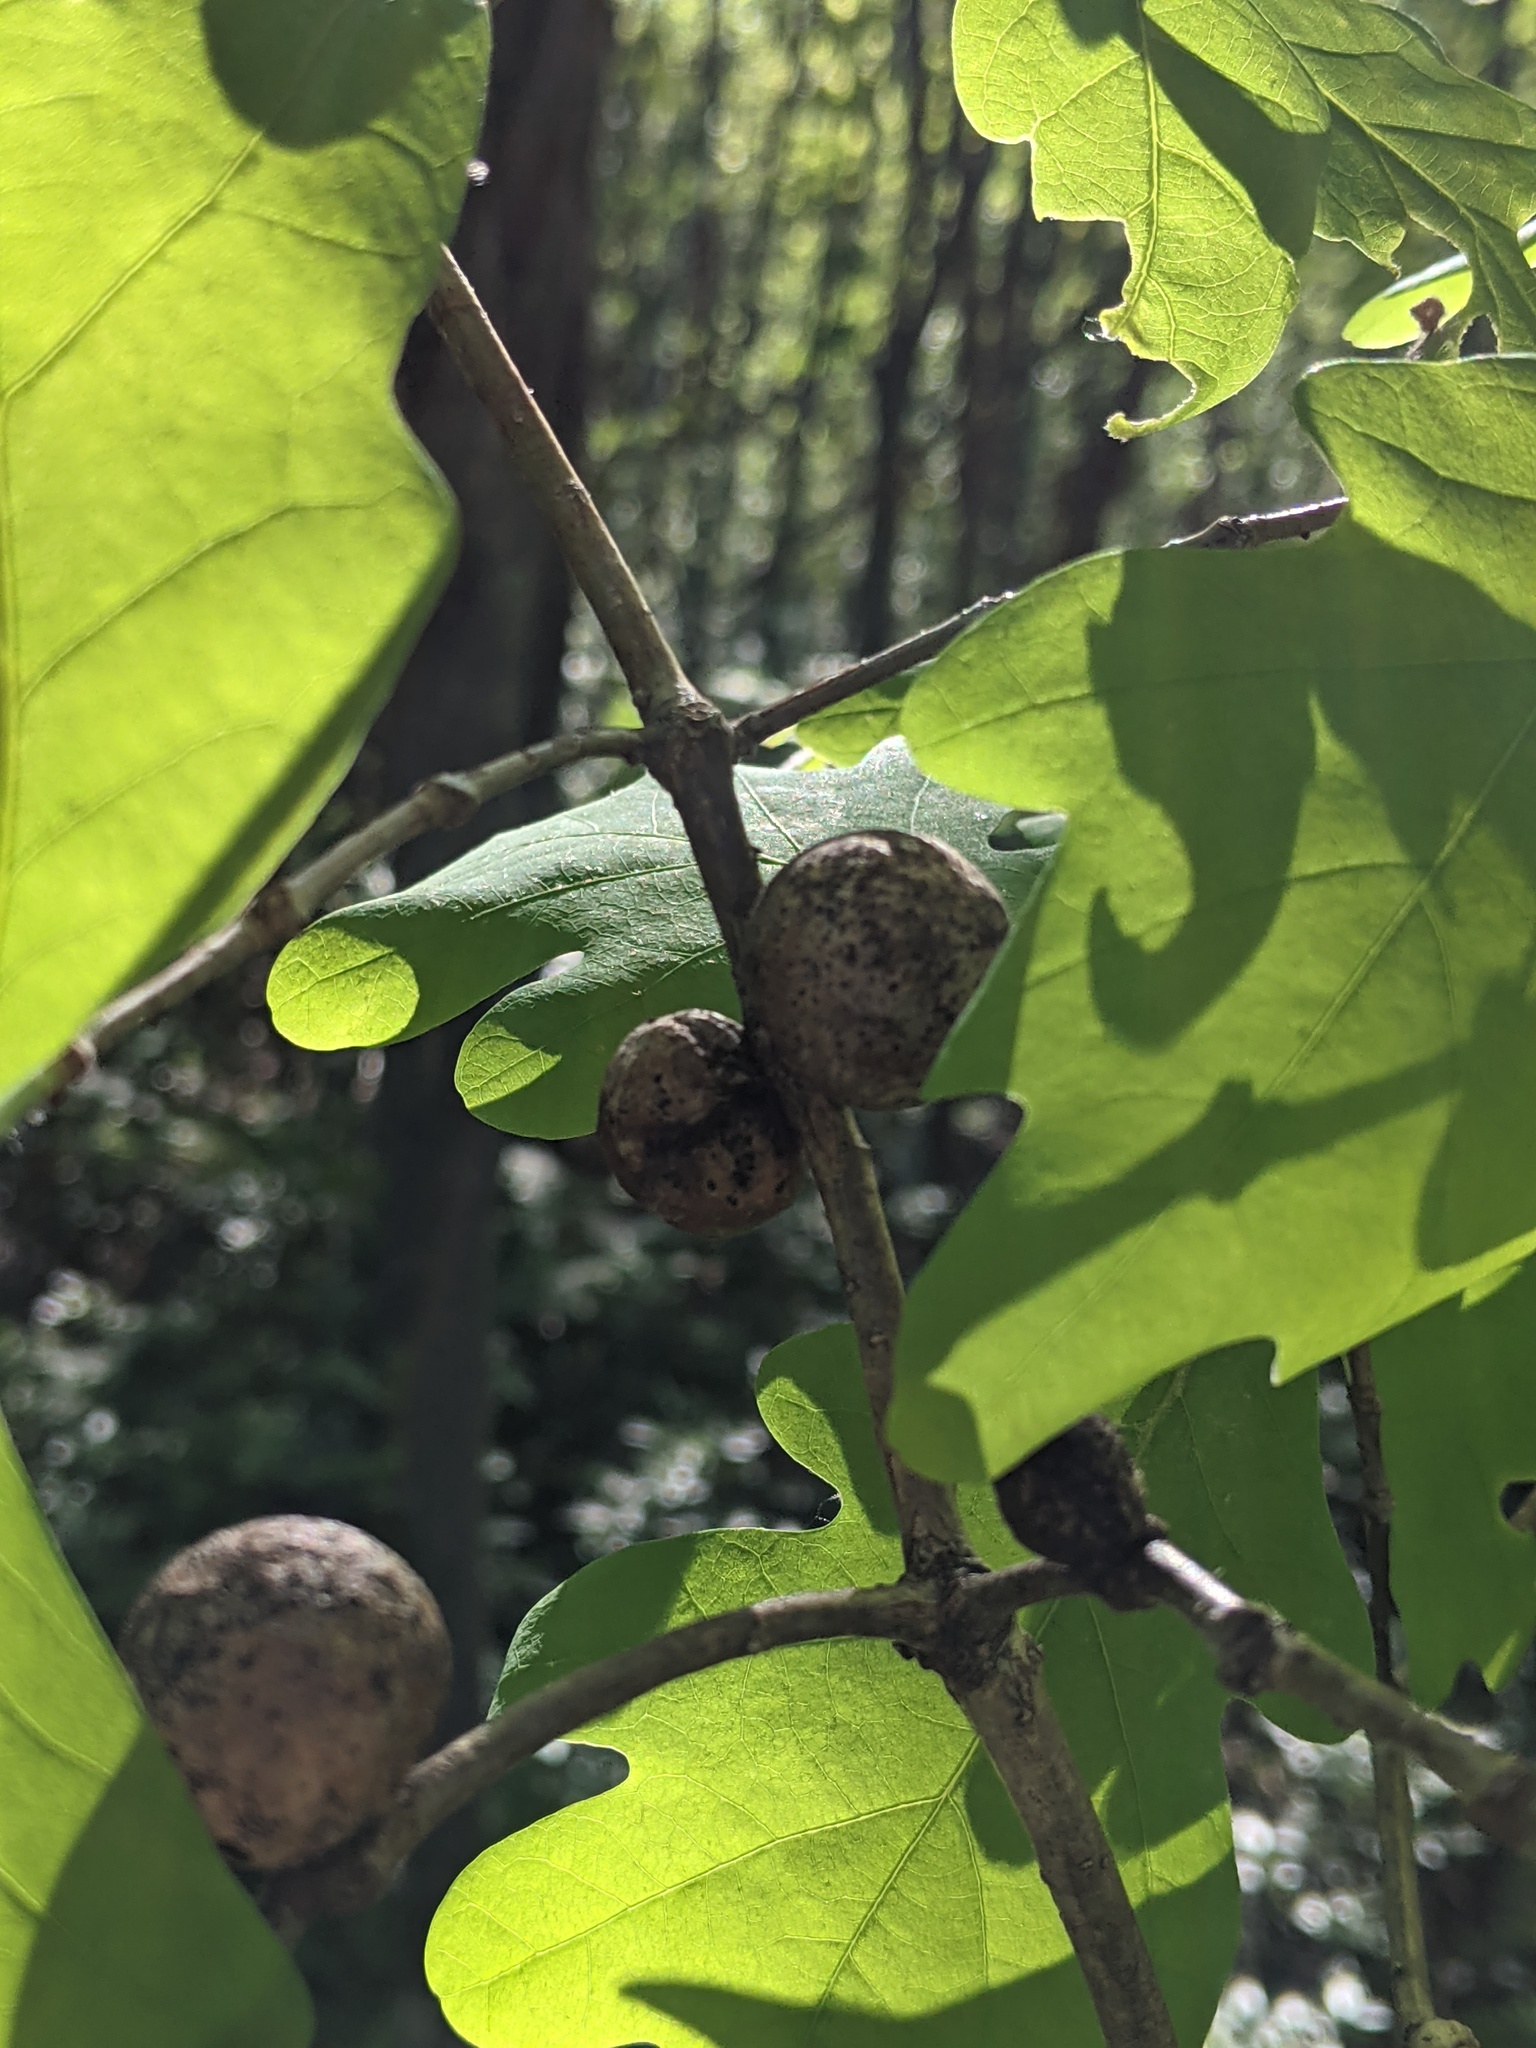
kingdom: Animalia
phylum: Arthropoda
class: Insecta
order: Hymenoptera
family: Cynipidae
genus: Disholcaspis
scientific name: Disholcaspis quercusglobulus
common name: Round bullet gall wasp
